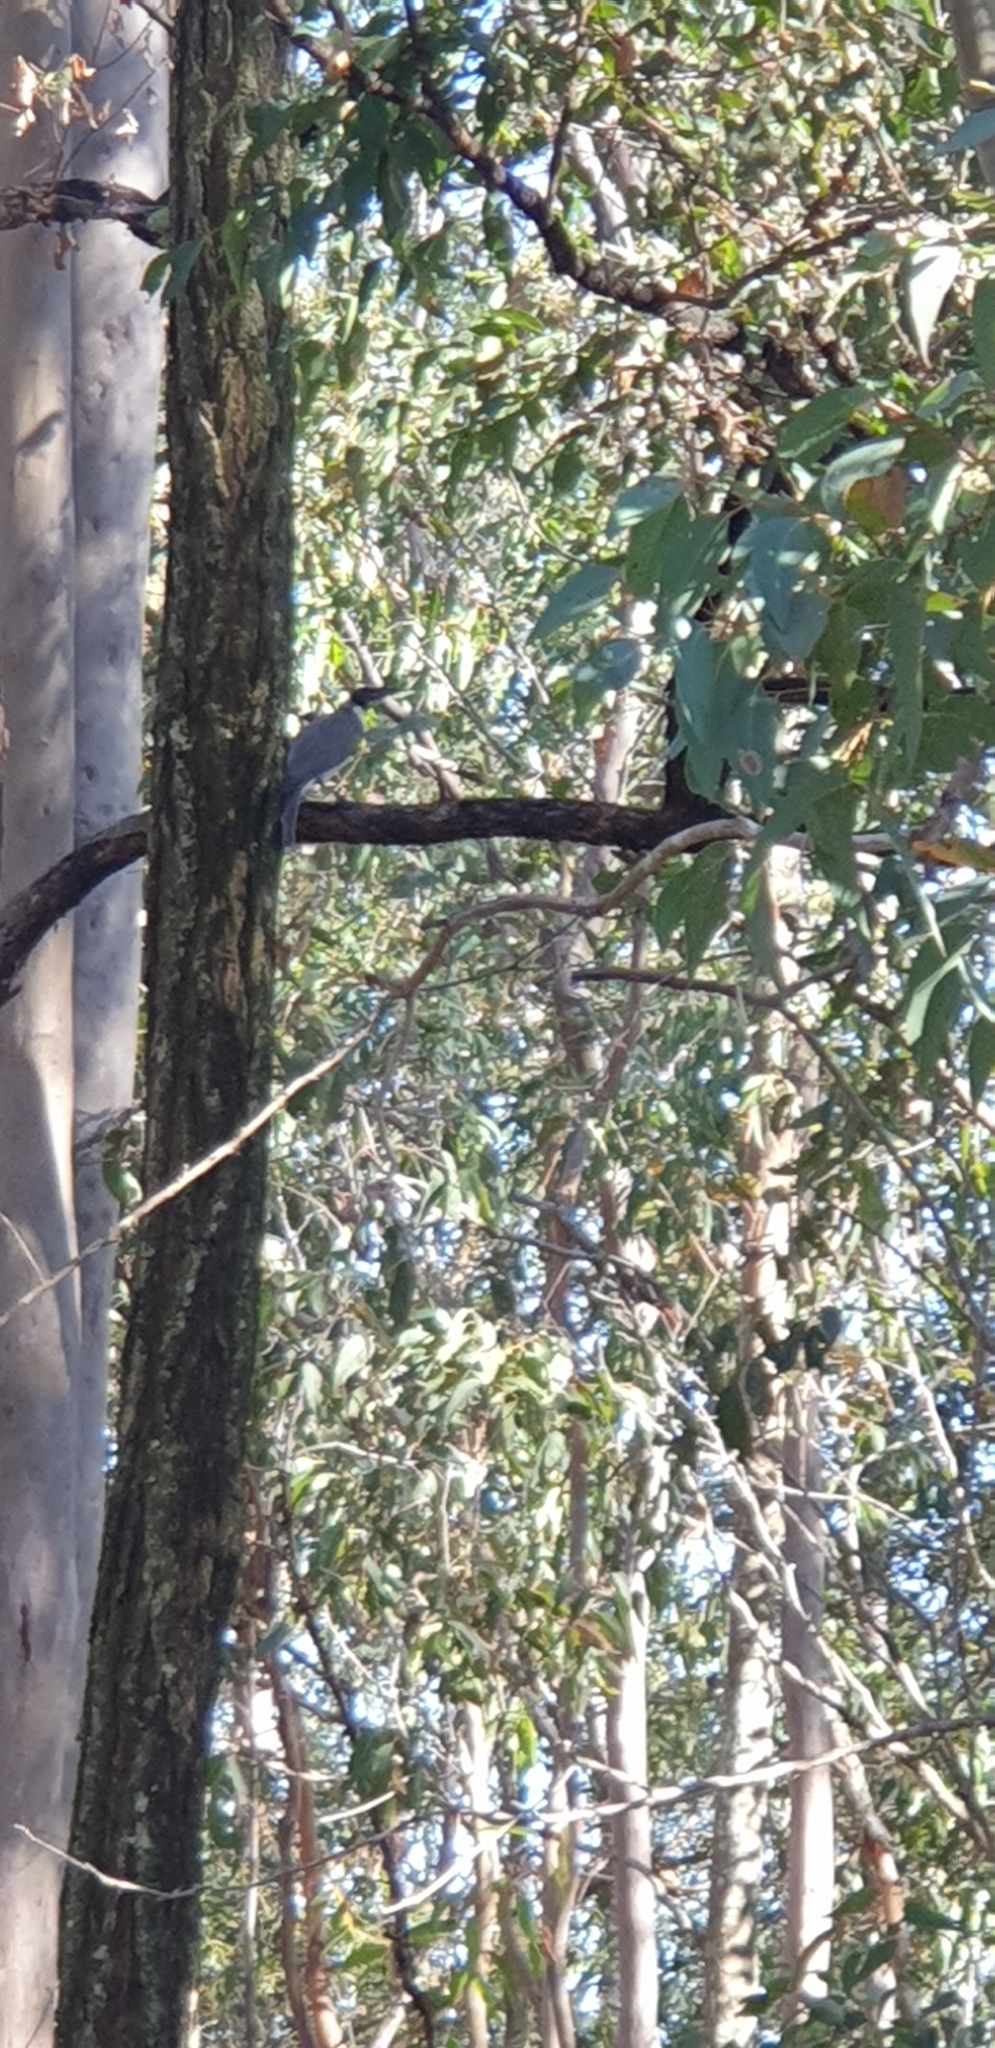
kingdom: Animalia
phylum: Chordata
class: Aves
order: Passeriformes
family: Meliphagidae
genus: Philemon
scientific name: Philemon corniculatus
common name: Noisy friarbird
